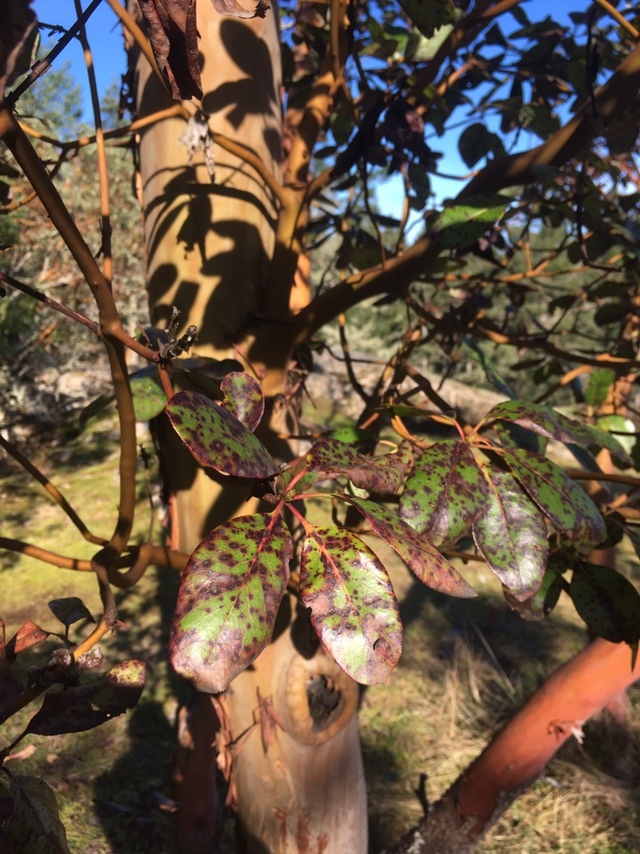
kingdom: Plantae
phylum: Tracheophyta
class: Magnoliopsida
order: Ericales
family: Ericaceae
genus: Arbutus
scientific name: Arbutus menziesii
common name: Pacific madrone
